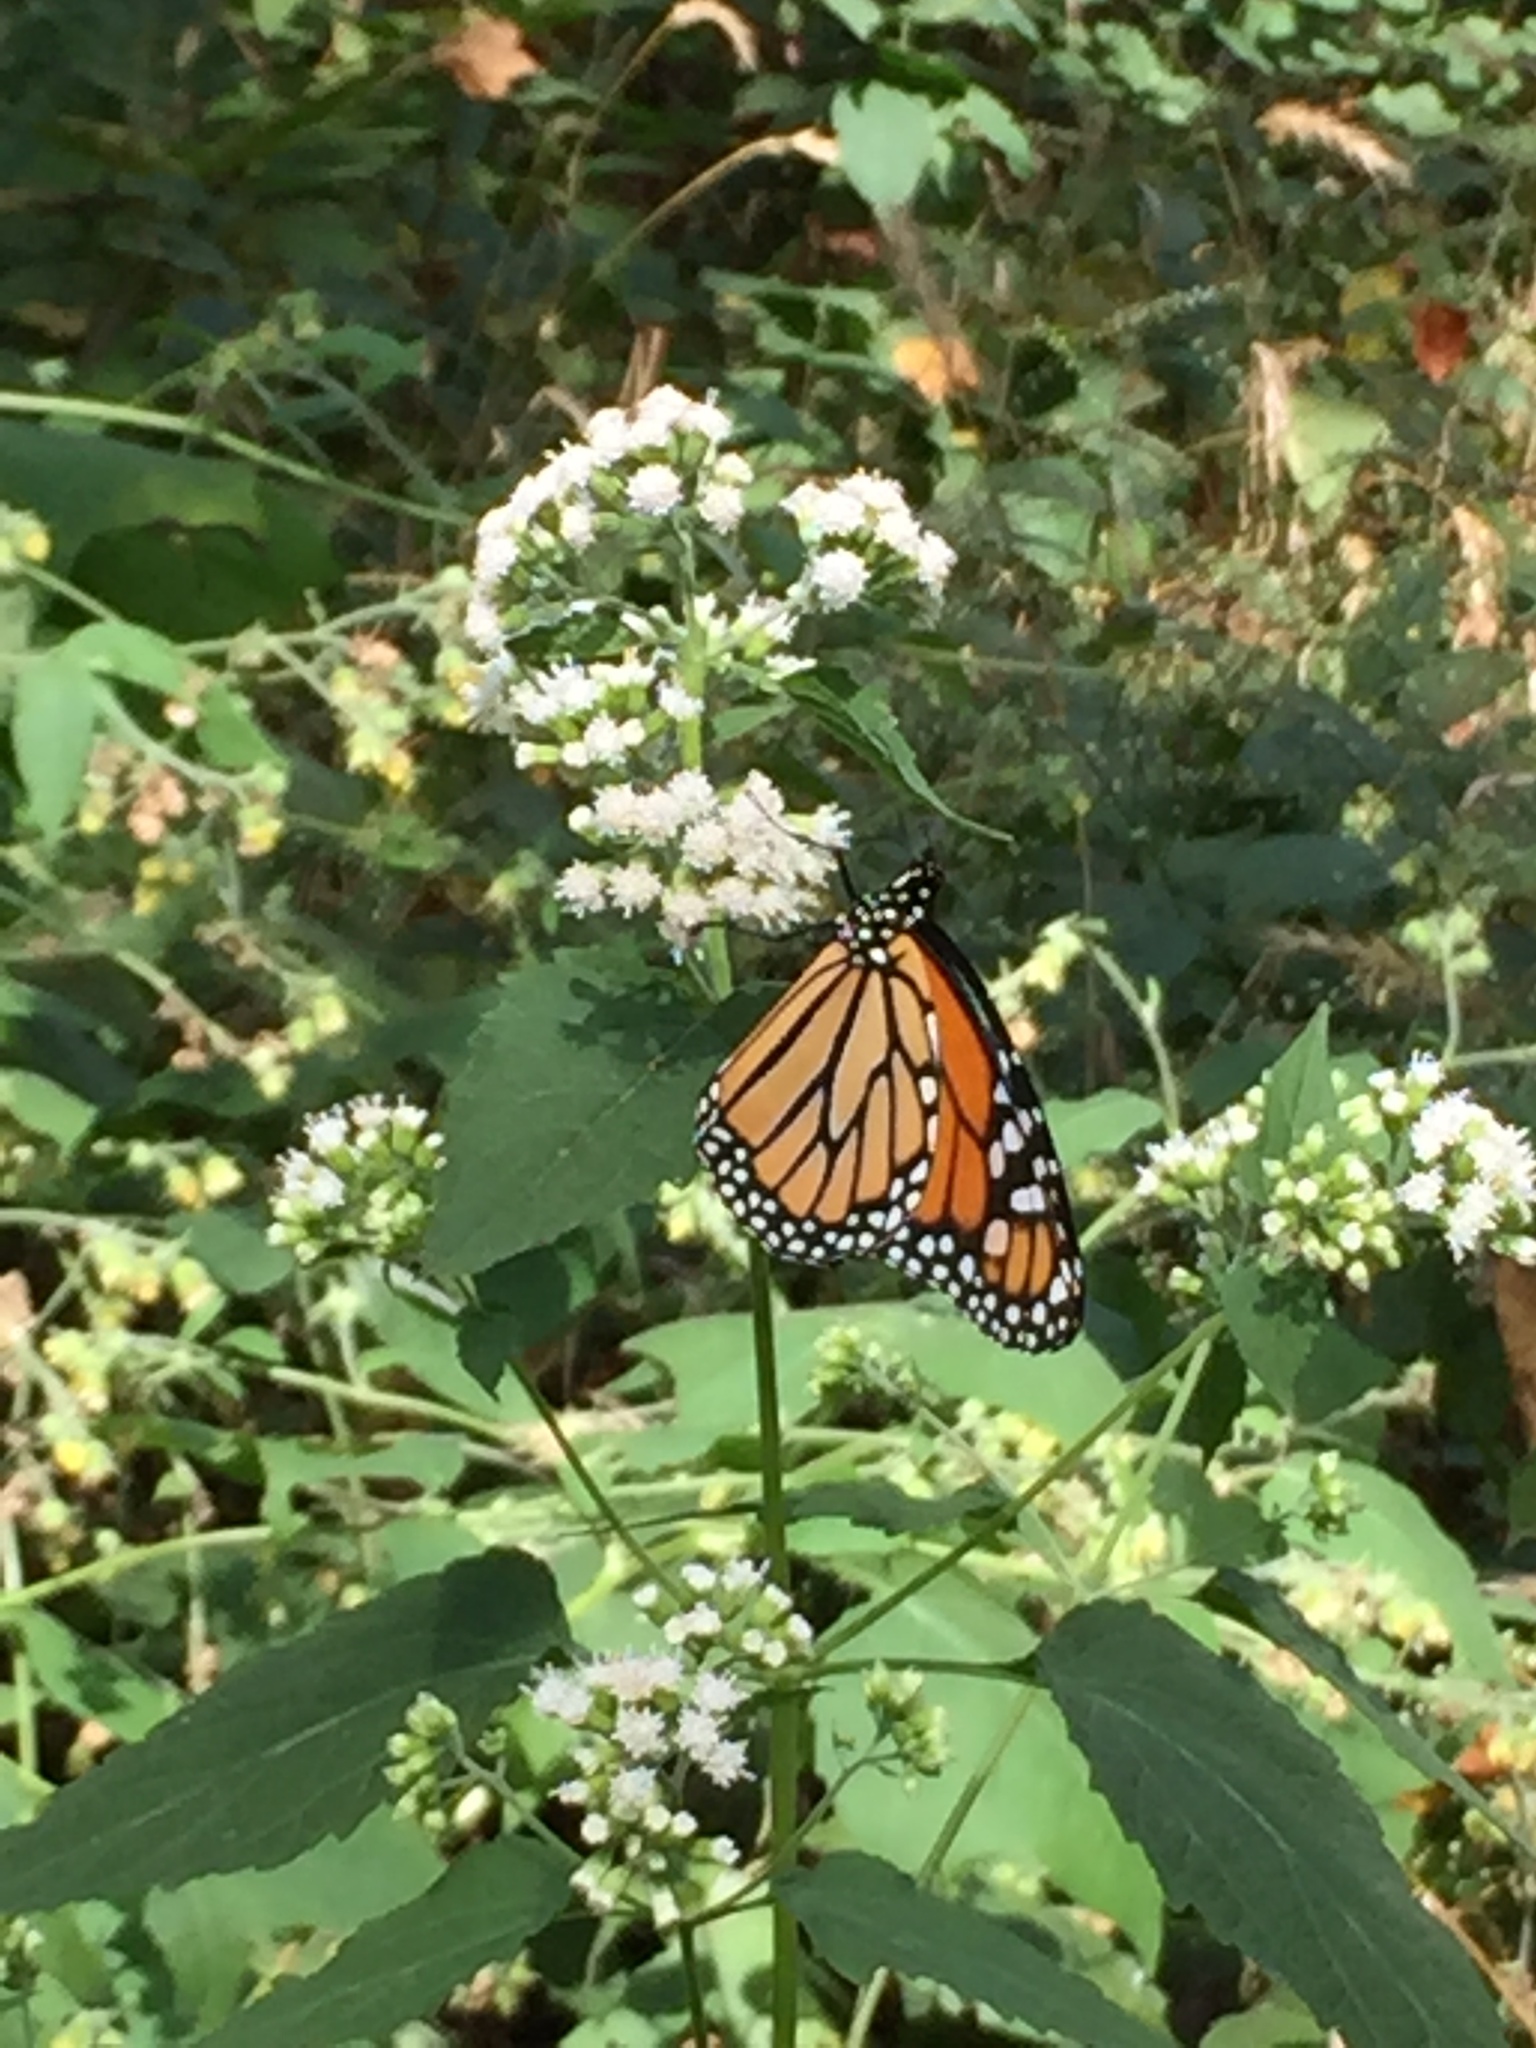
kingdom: Animalia
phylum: Arthropoda
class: Insecta
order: Lepidoptera
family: Nymphalidae
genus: Danaus
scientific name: Danaus plexippus
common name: Monarch
